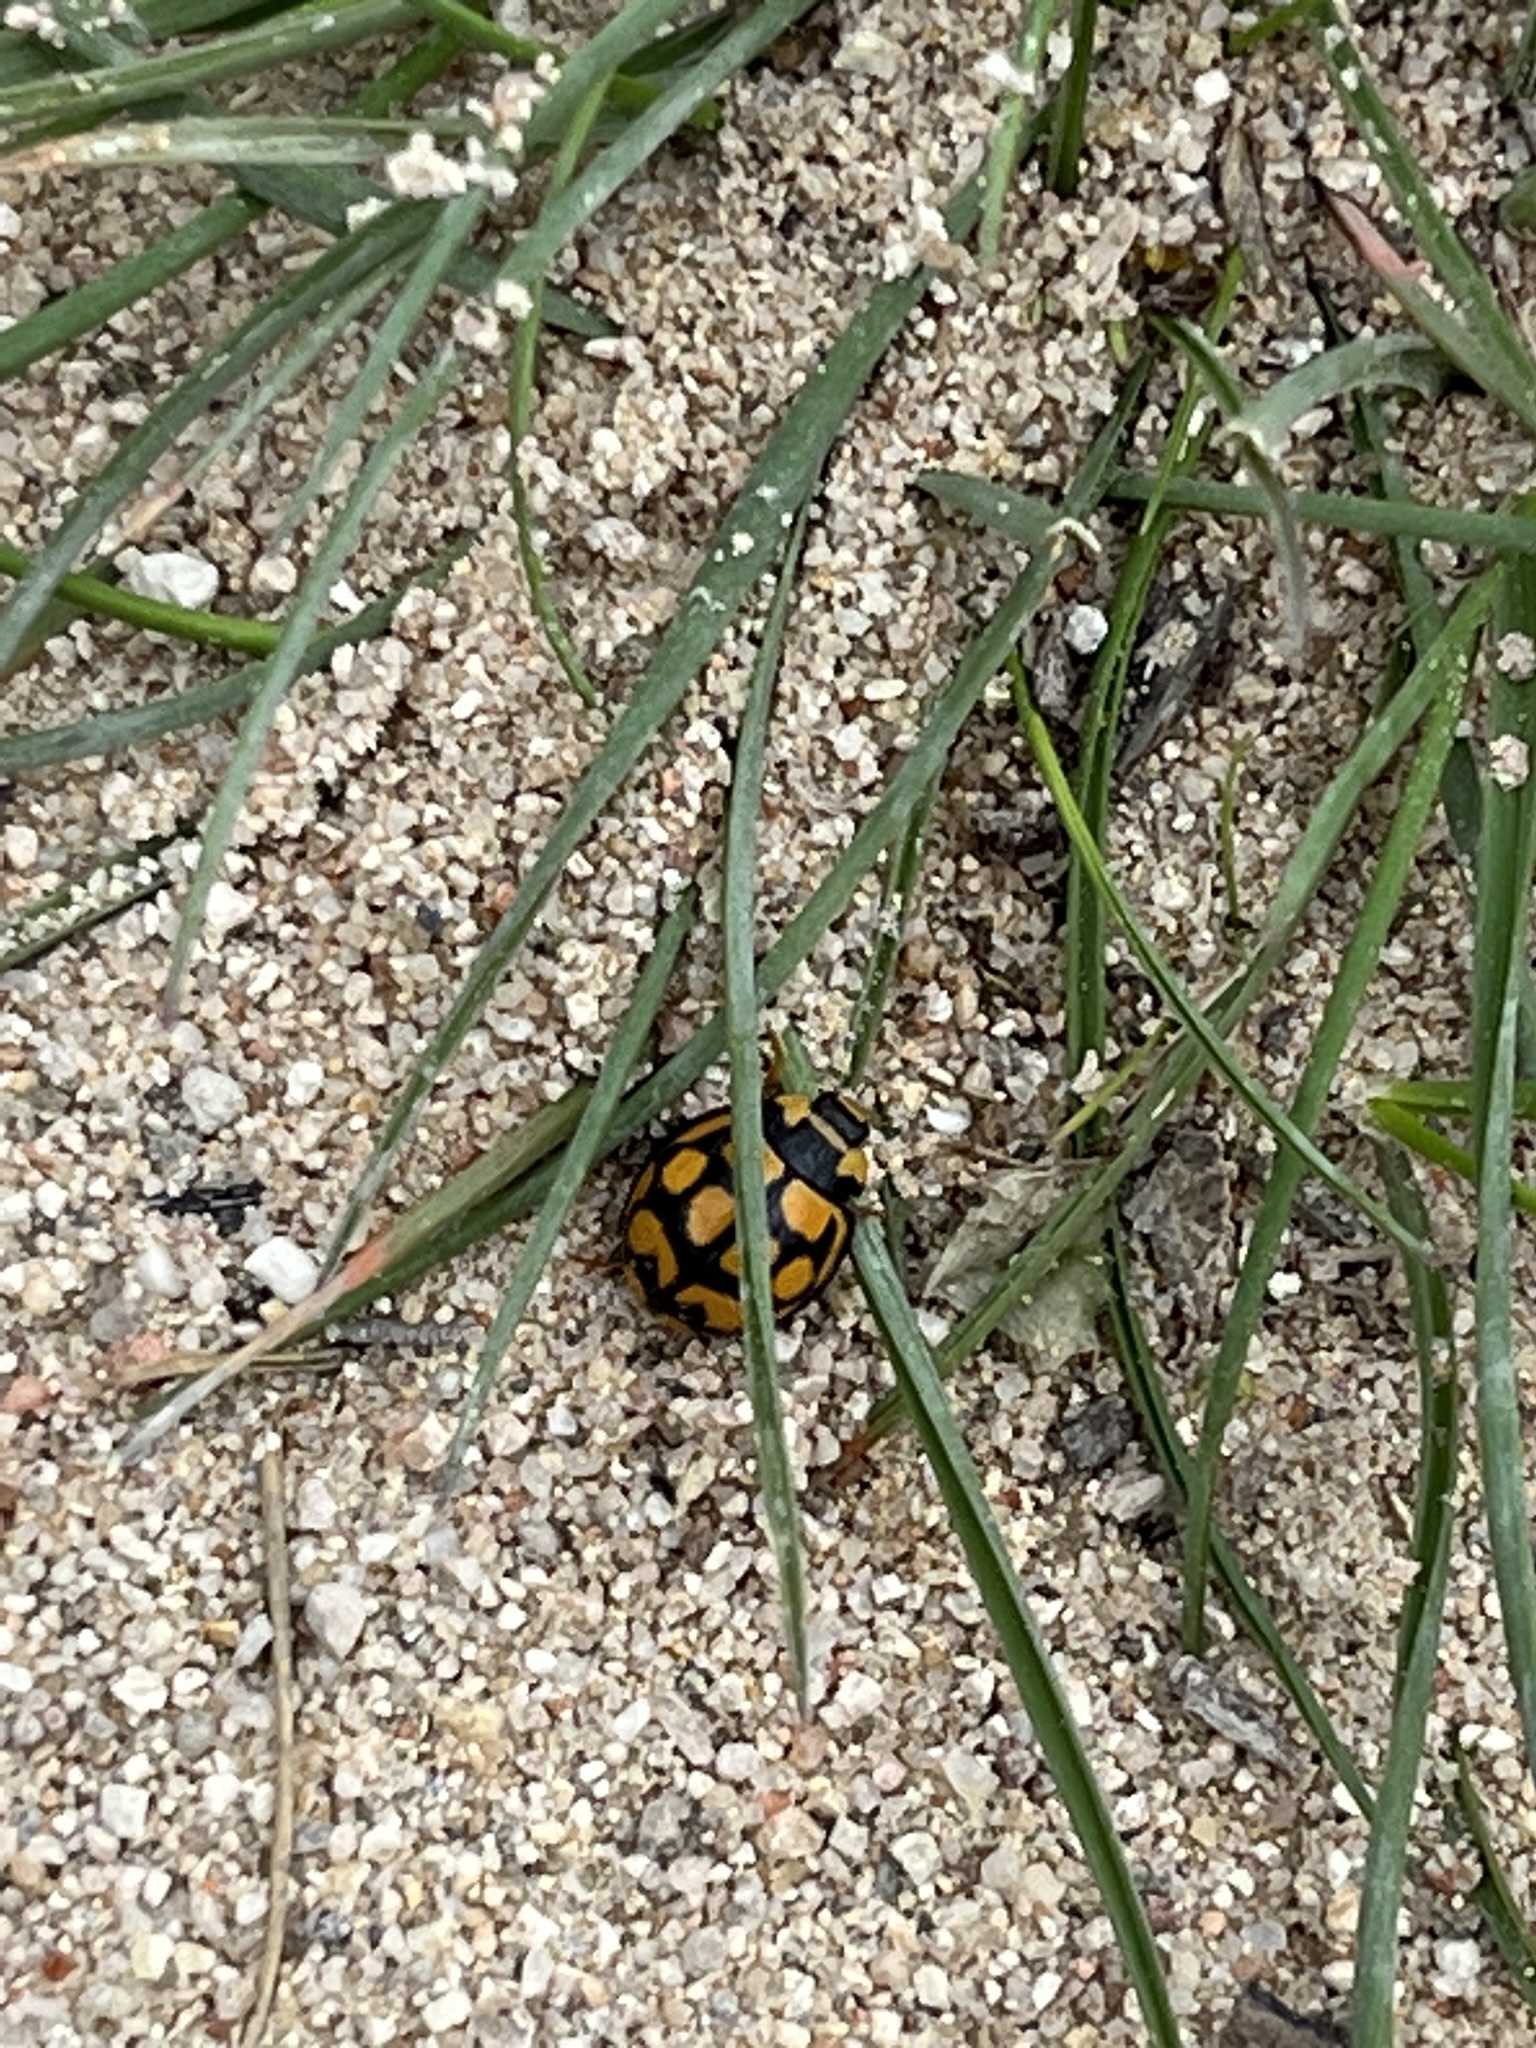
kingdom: Animalia
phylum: Arthropoda
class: Insecta
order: Coleoptera
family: Coccinellidae
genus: Cheilomenes
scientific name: Cheilomenes lunata
